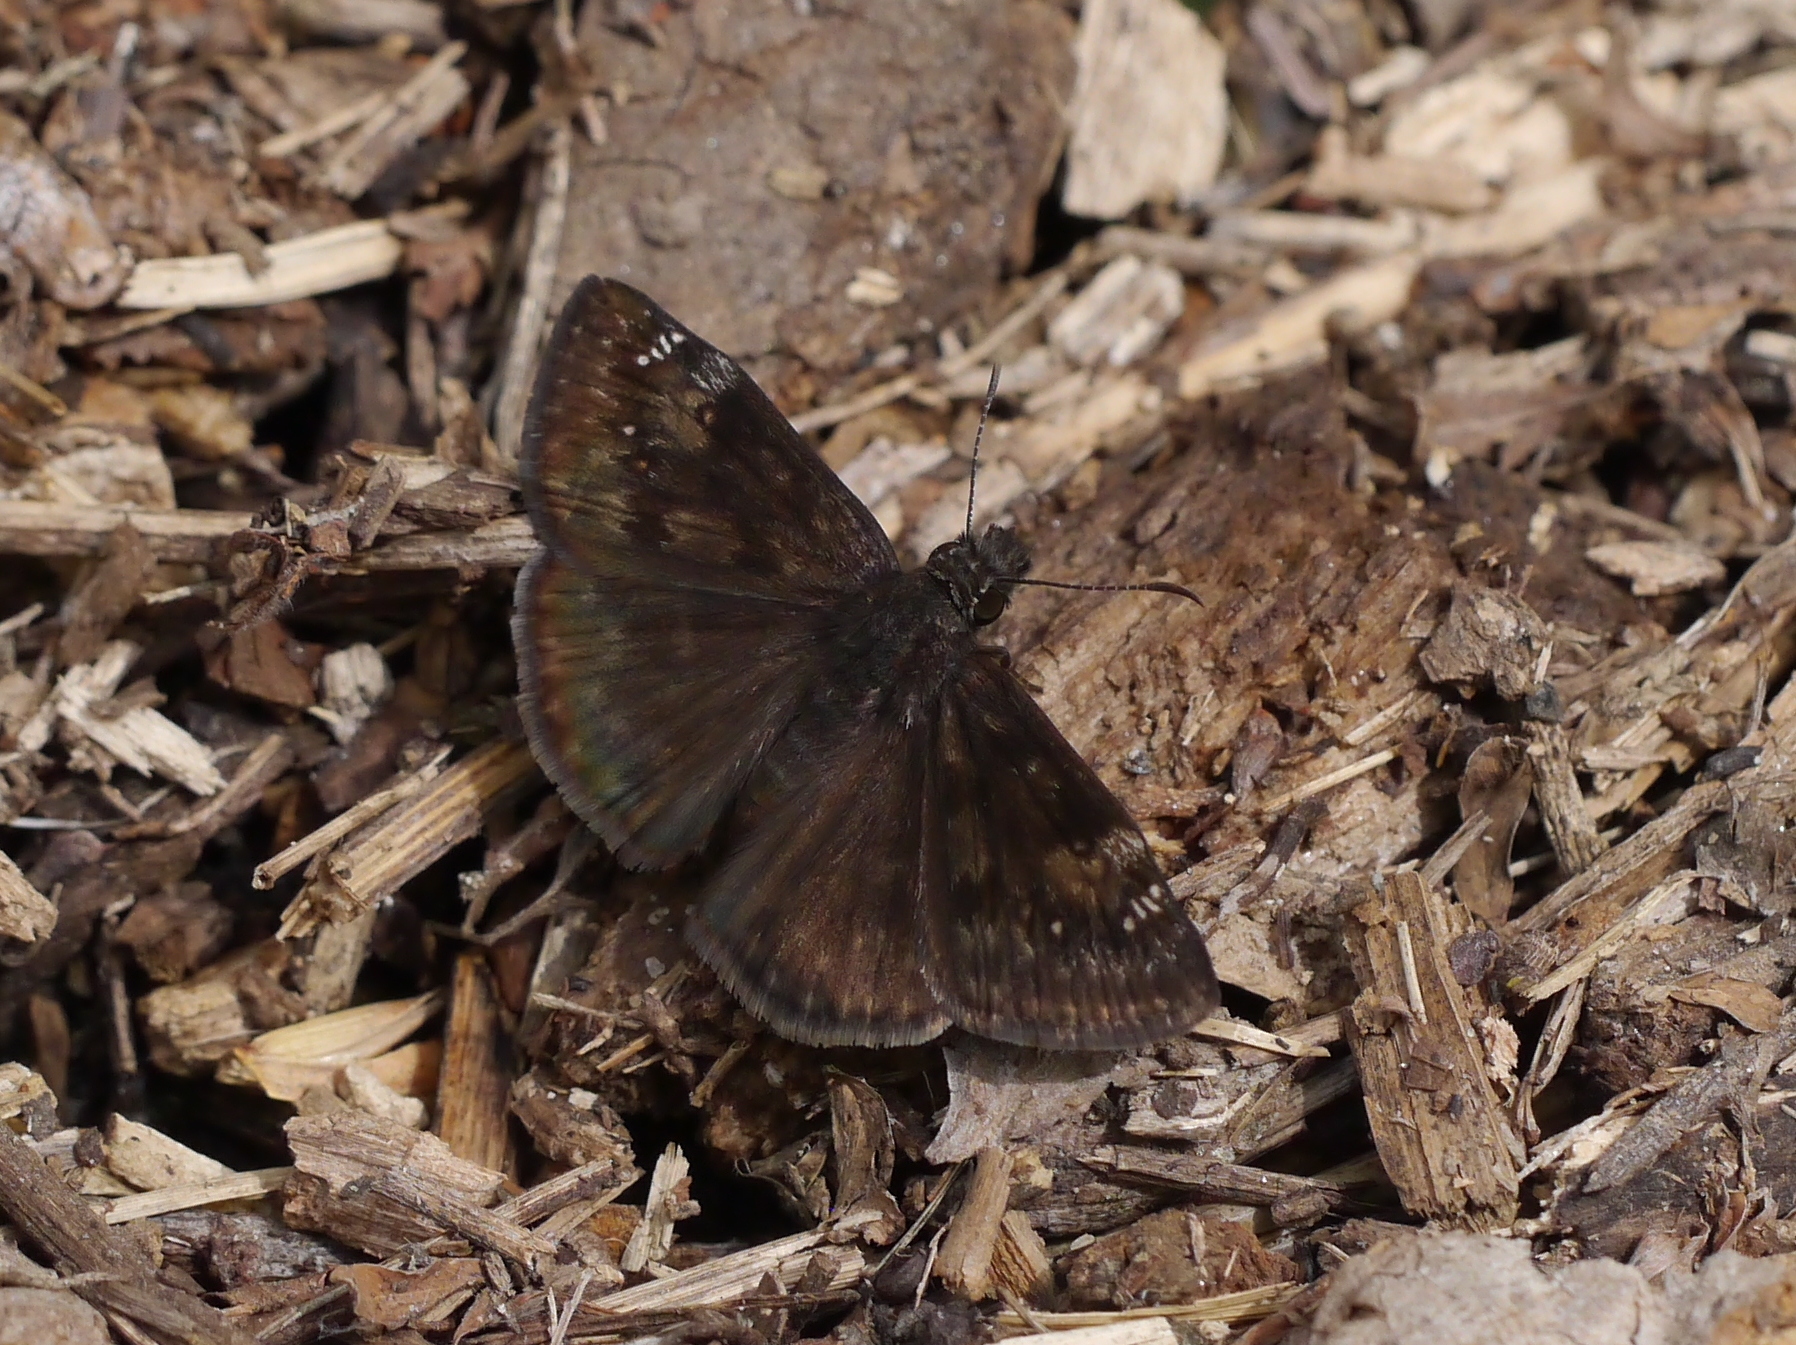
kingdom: Animalia
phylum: Arthropoda
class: Insecta
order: Lepidoptera
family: Hesperiidae
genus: Erynnis
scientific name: Erynnis baptisiae
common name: Wild indigo duskywing
